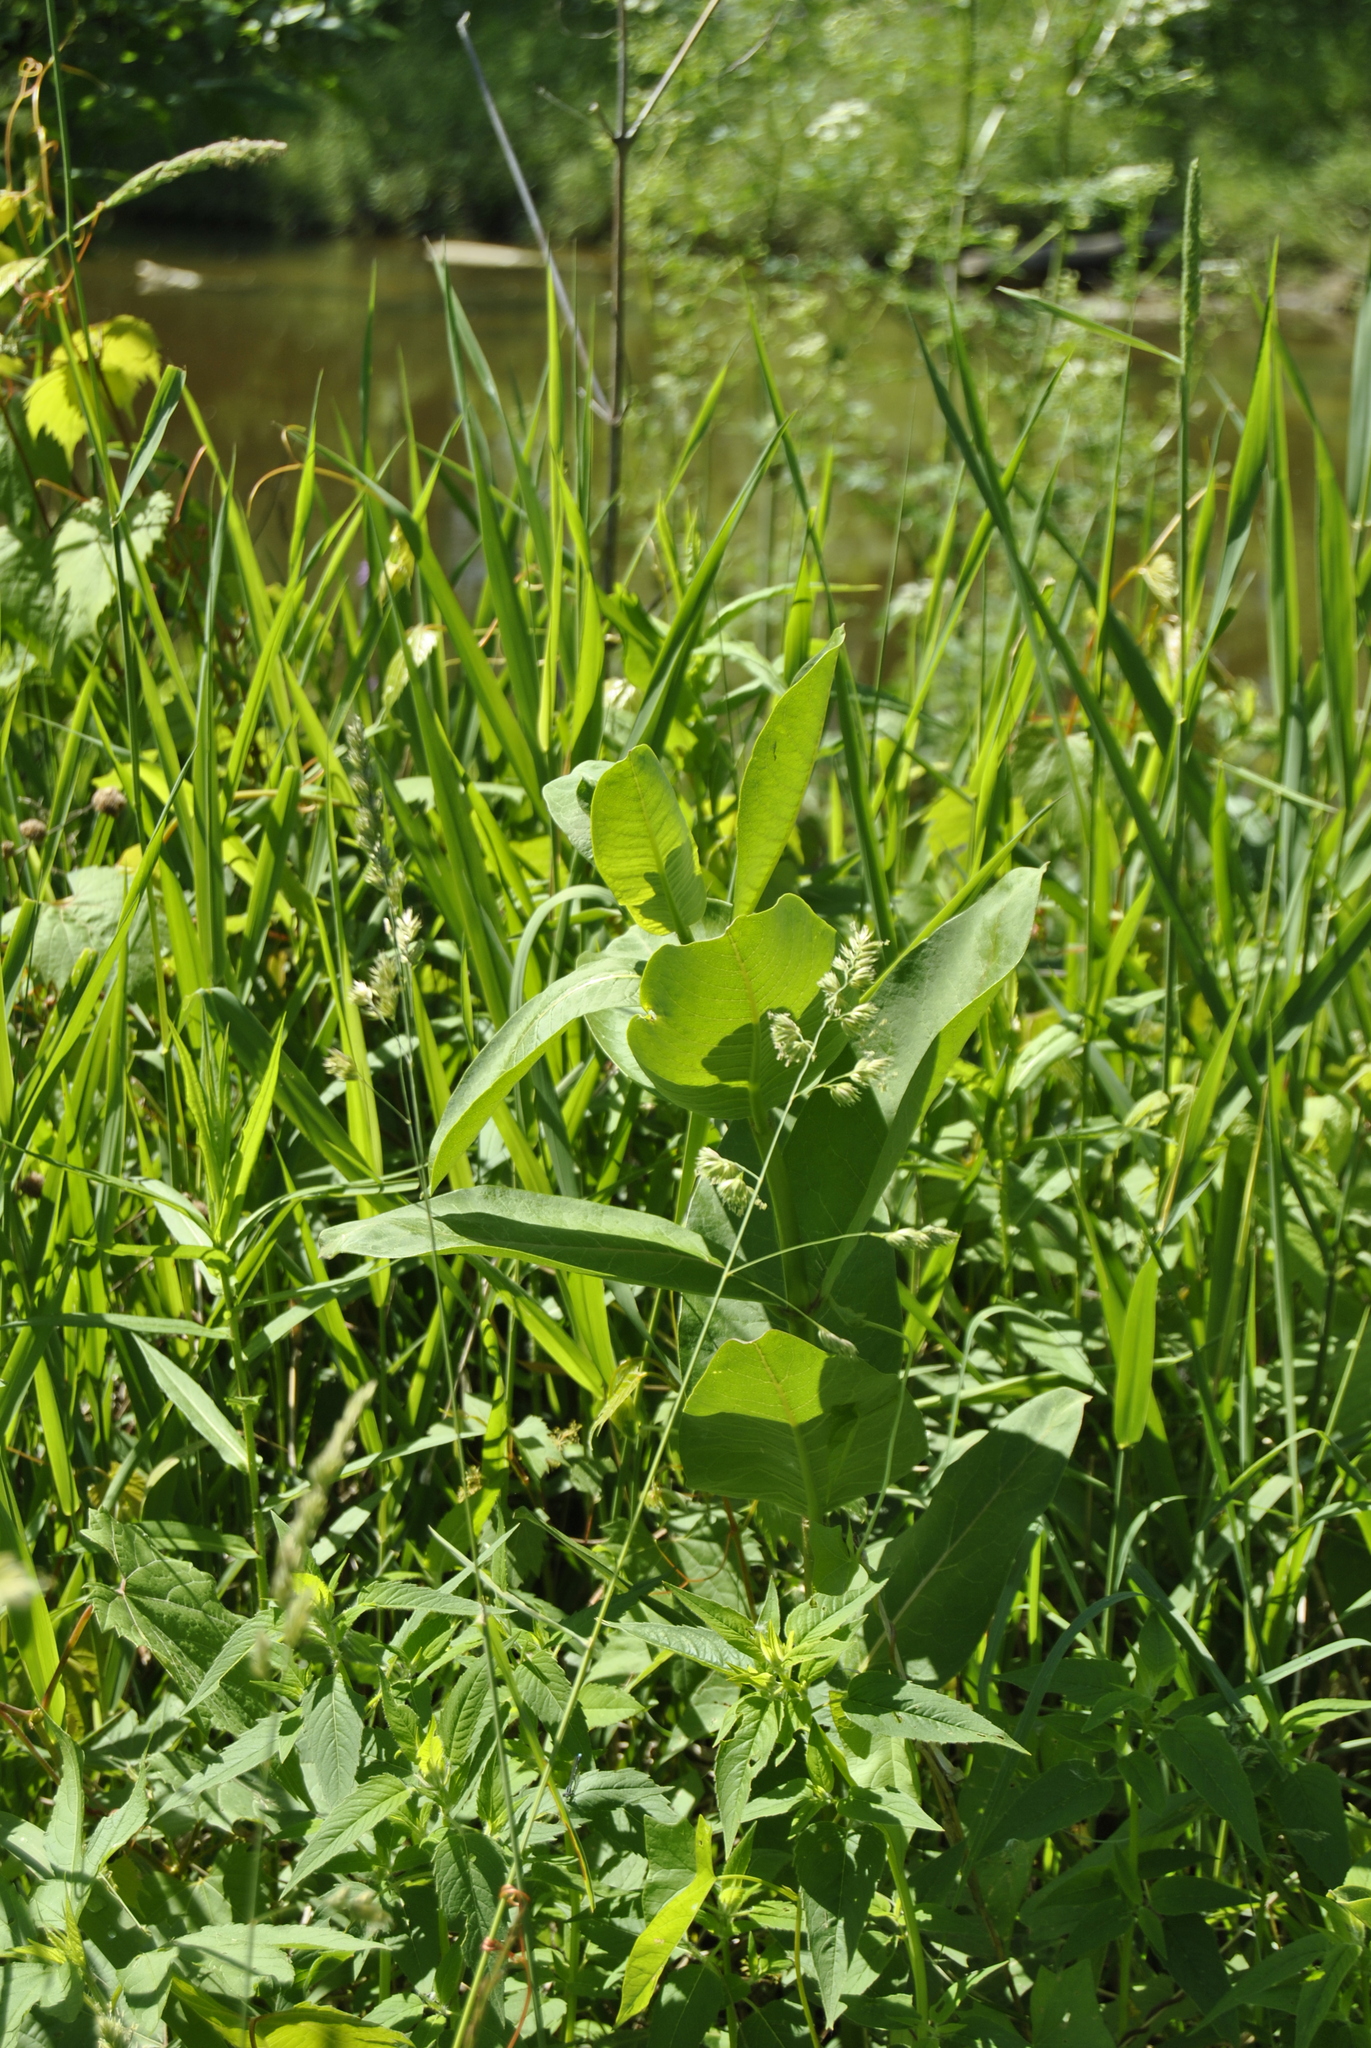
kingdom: Plantae
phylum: Tracheophyta
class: Magnoliopsida
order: Gentianales
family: Apocynaceae
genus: Asclepias
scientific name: Asclepias syriaca
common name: Common milkweed
